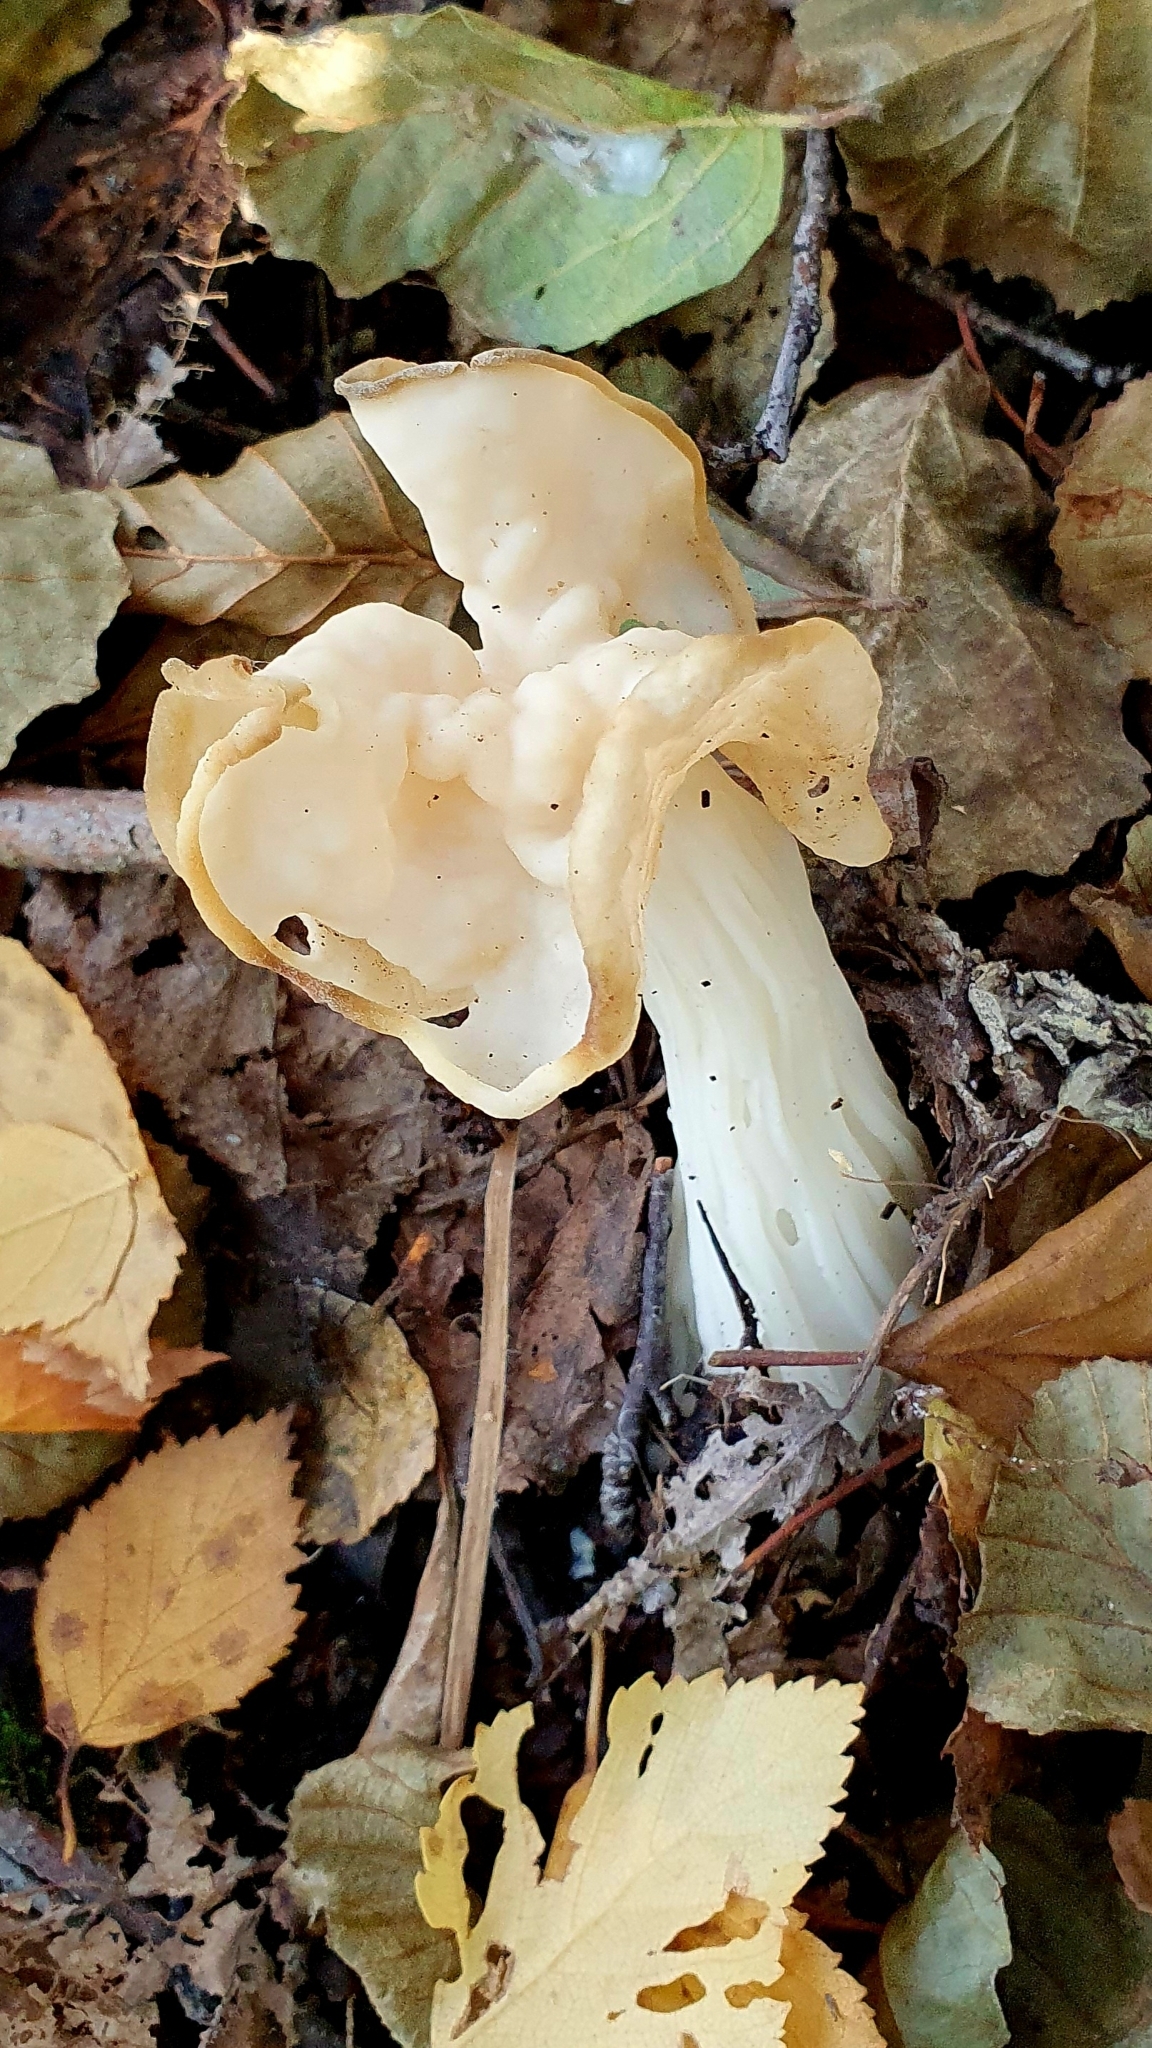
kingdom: Fungi
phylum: Ascomycota
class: Pezizomycetes
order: Pezizales
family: Helvellaceae
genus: Helvella
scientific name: Helvella crispa
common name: White saddle
